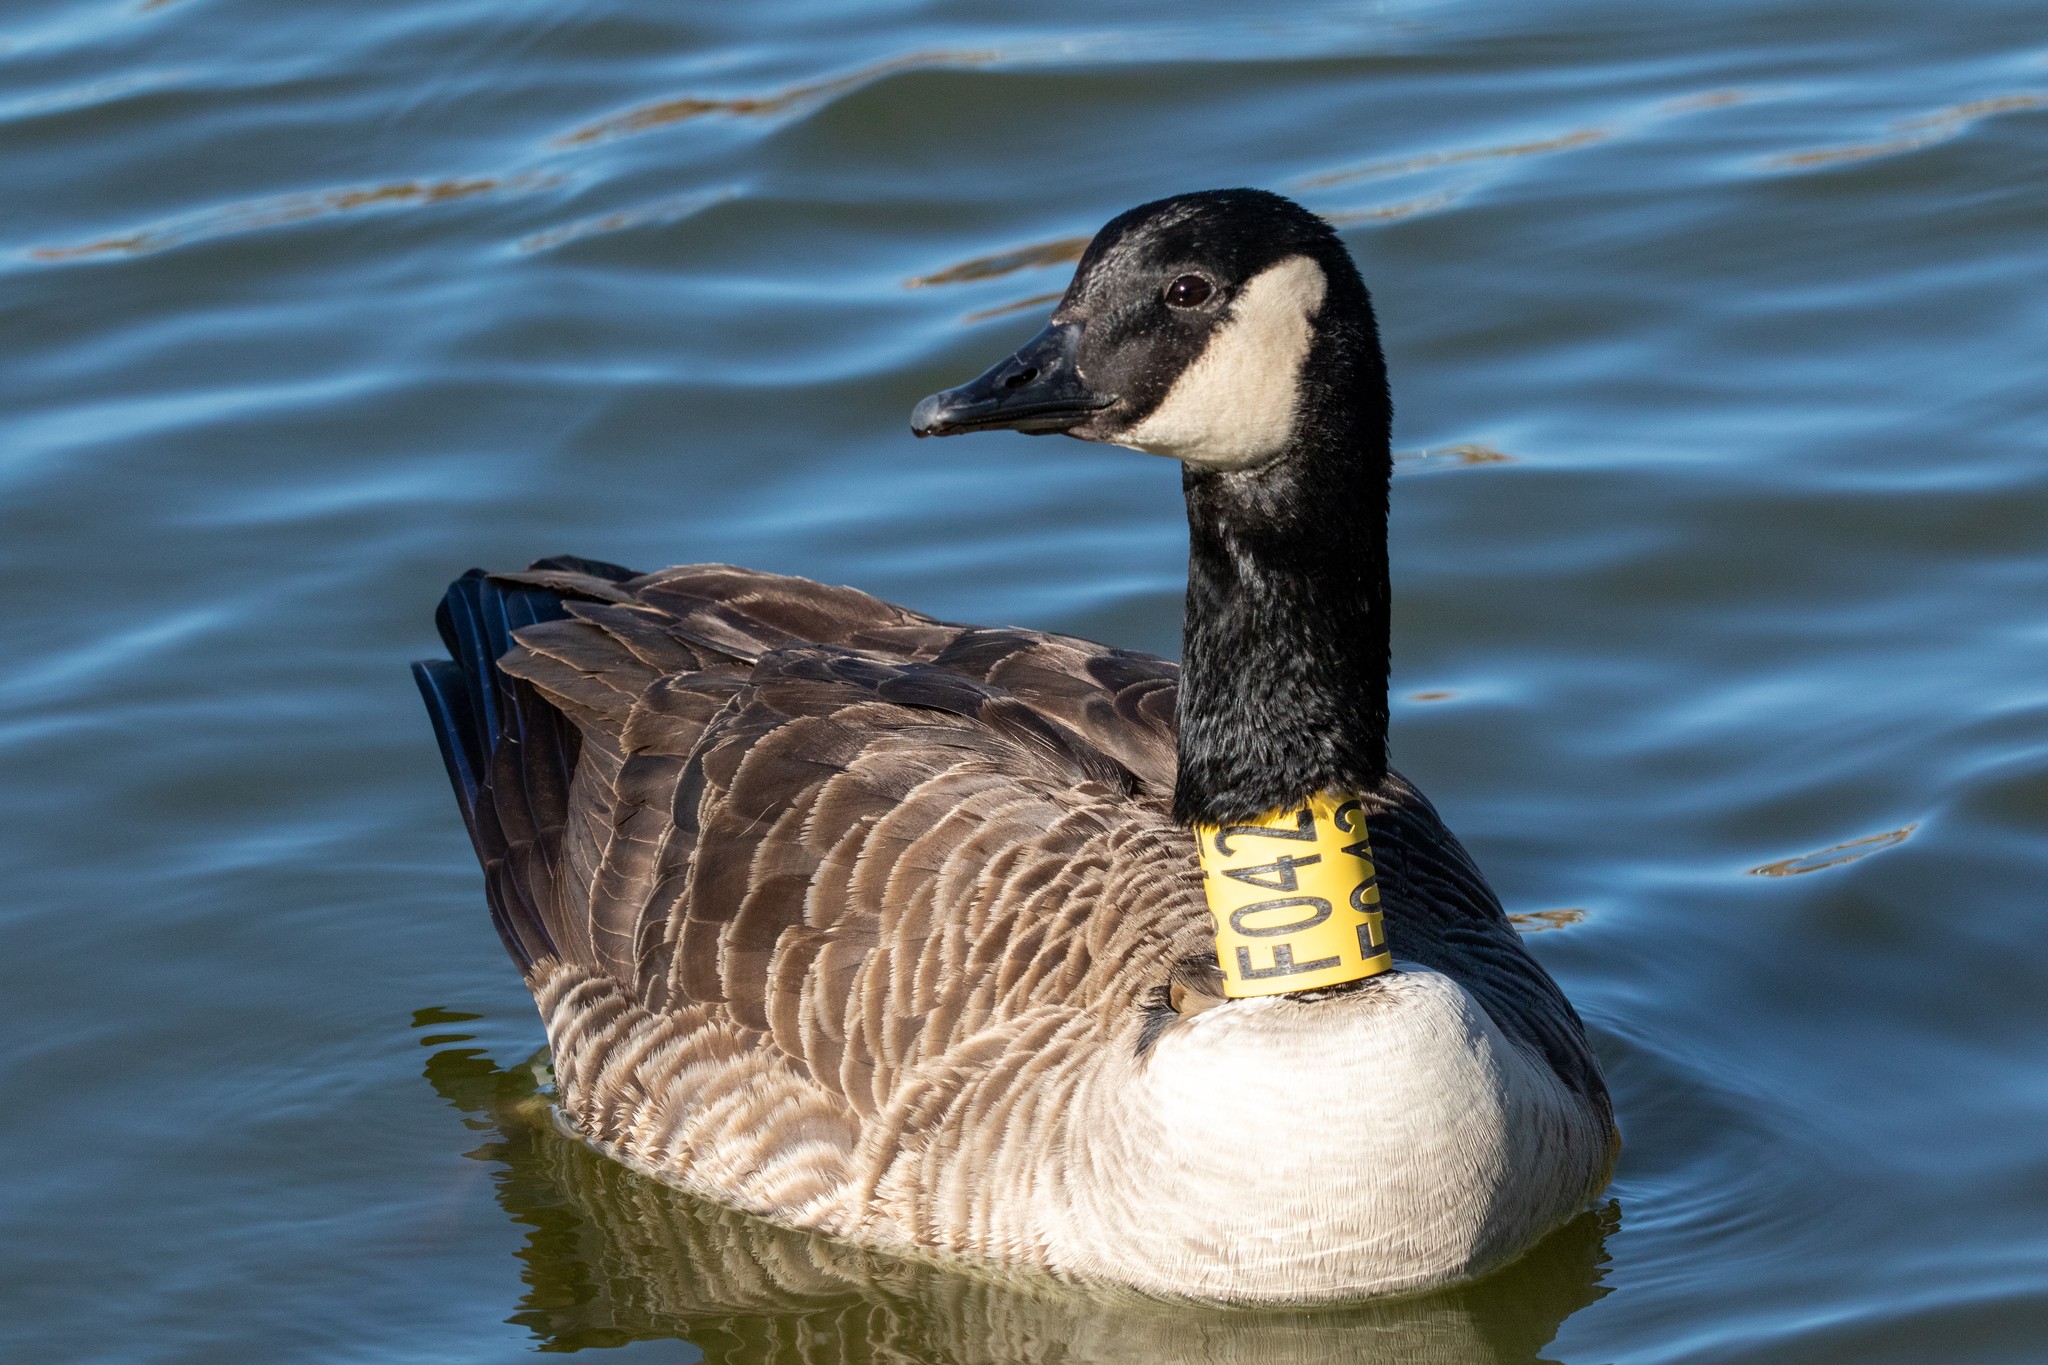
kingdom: Animalia
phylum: Chordata
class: Aves
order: Anseriformes
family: Anatidae
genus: Branta
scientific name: Branta canadensis
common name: Canada goose
